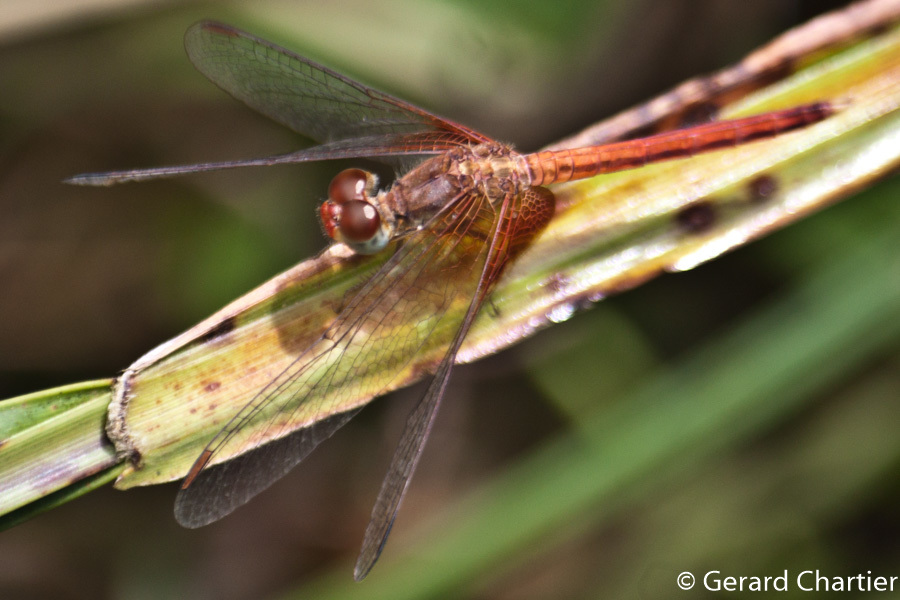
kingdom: Animalia
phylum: Arthropoda
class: Insecta
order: Odonata
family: Libellulidae
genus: Neurothemis
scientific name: Neurothemis intermedia
